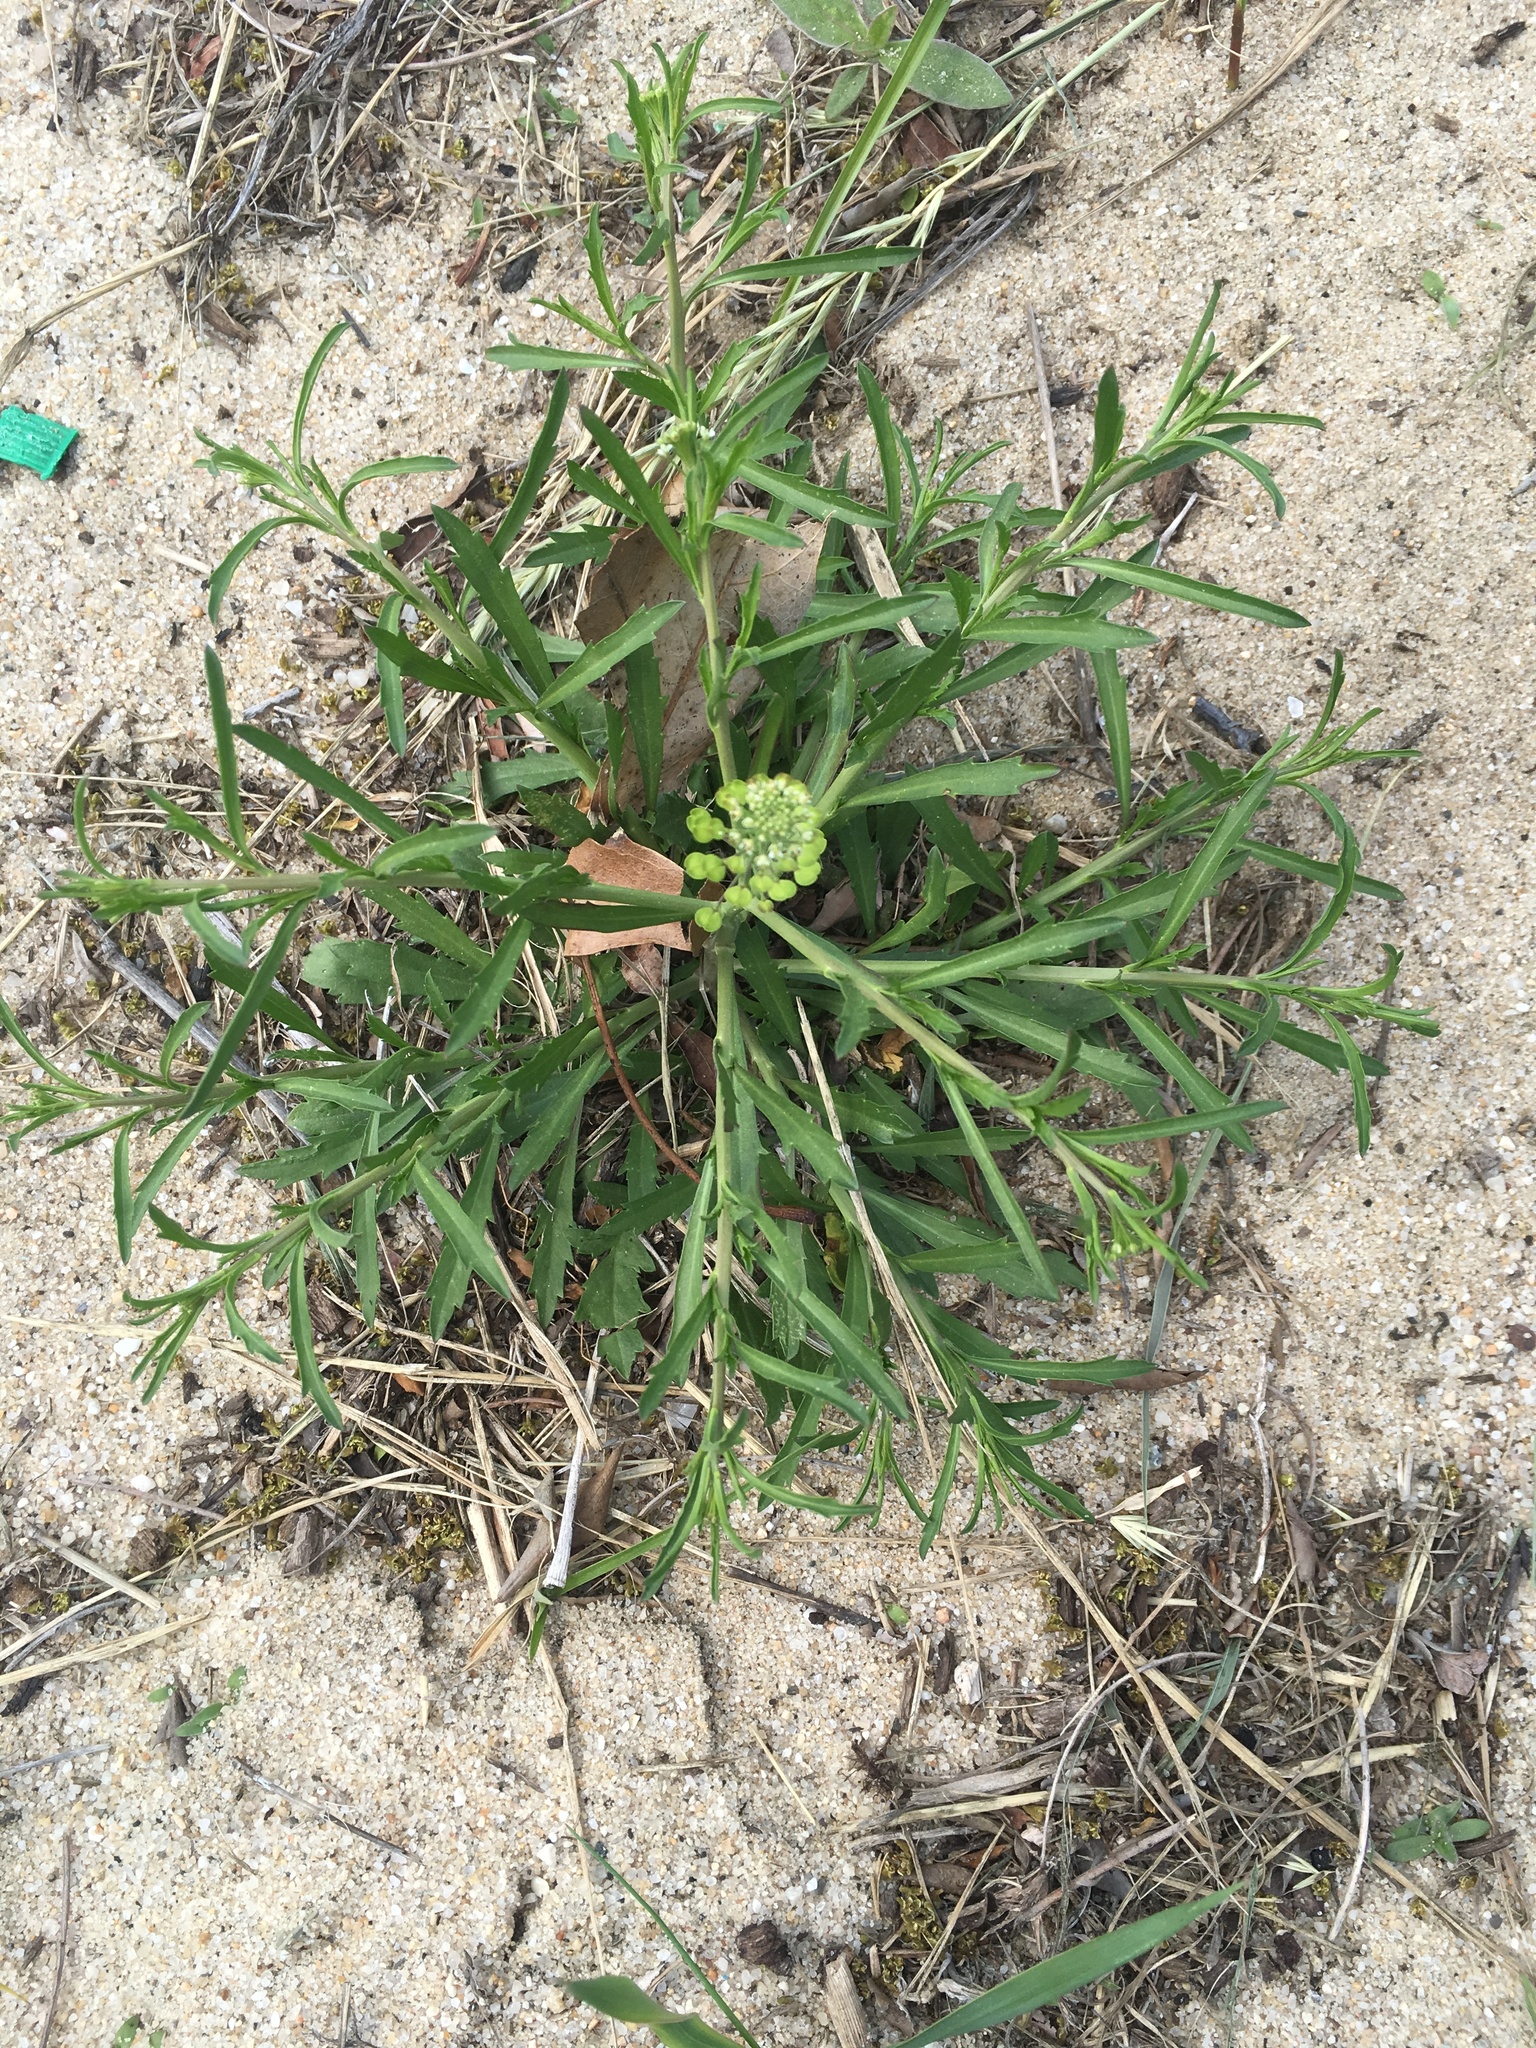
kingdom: Plantae
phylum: Tracheophyta
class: Magnoliopsida
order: Brassicales
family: Brassicaceae
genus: Lepidium
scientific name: Lepidium virginicum
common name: Least pepperwort
